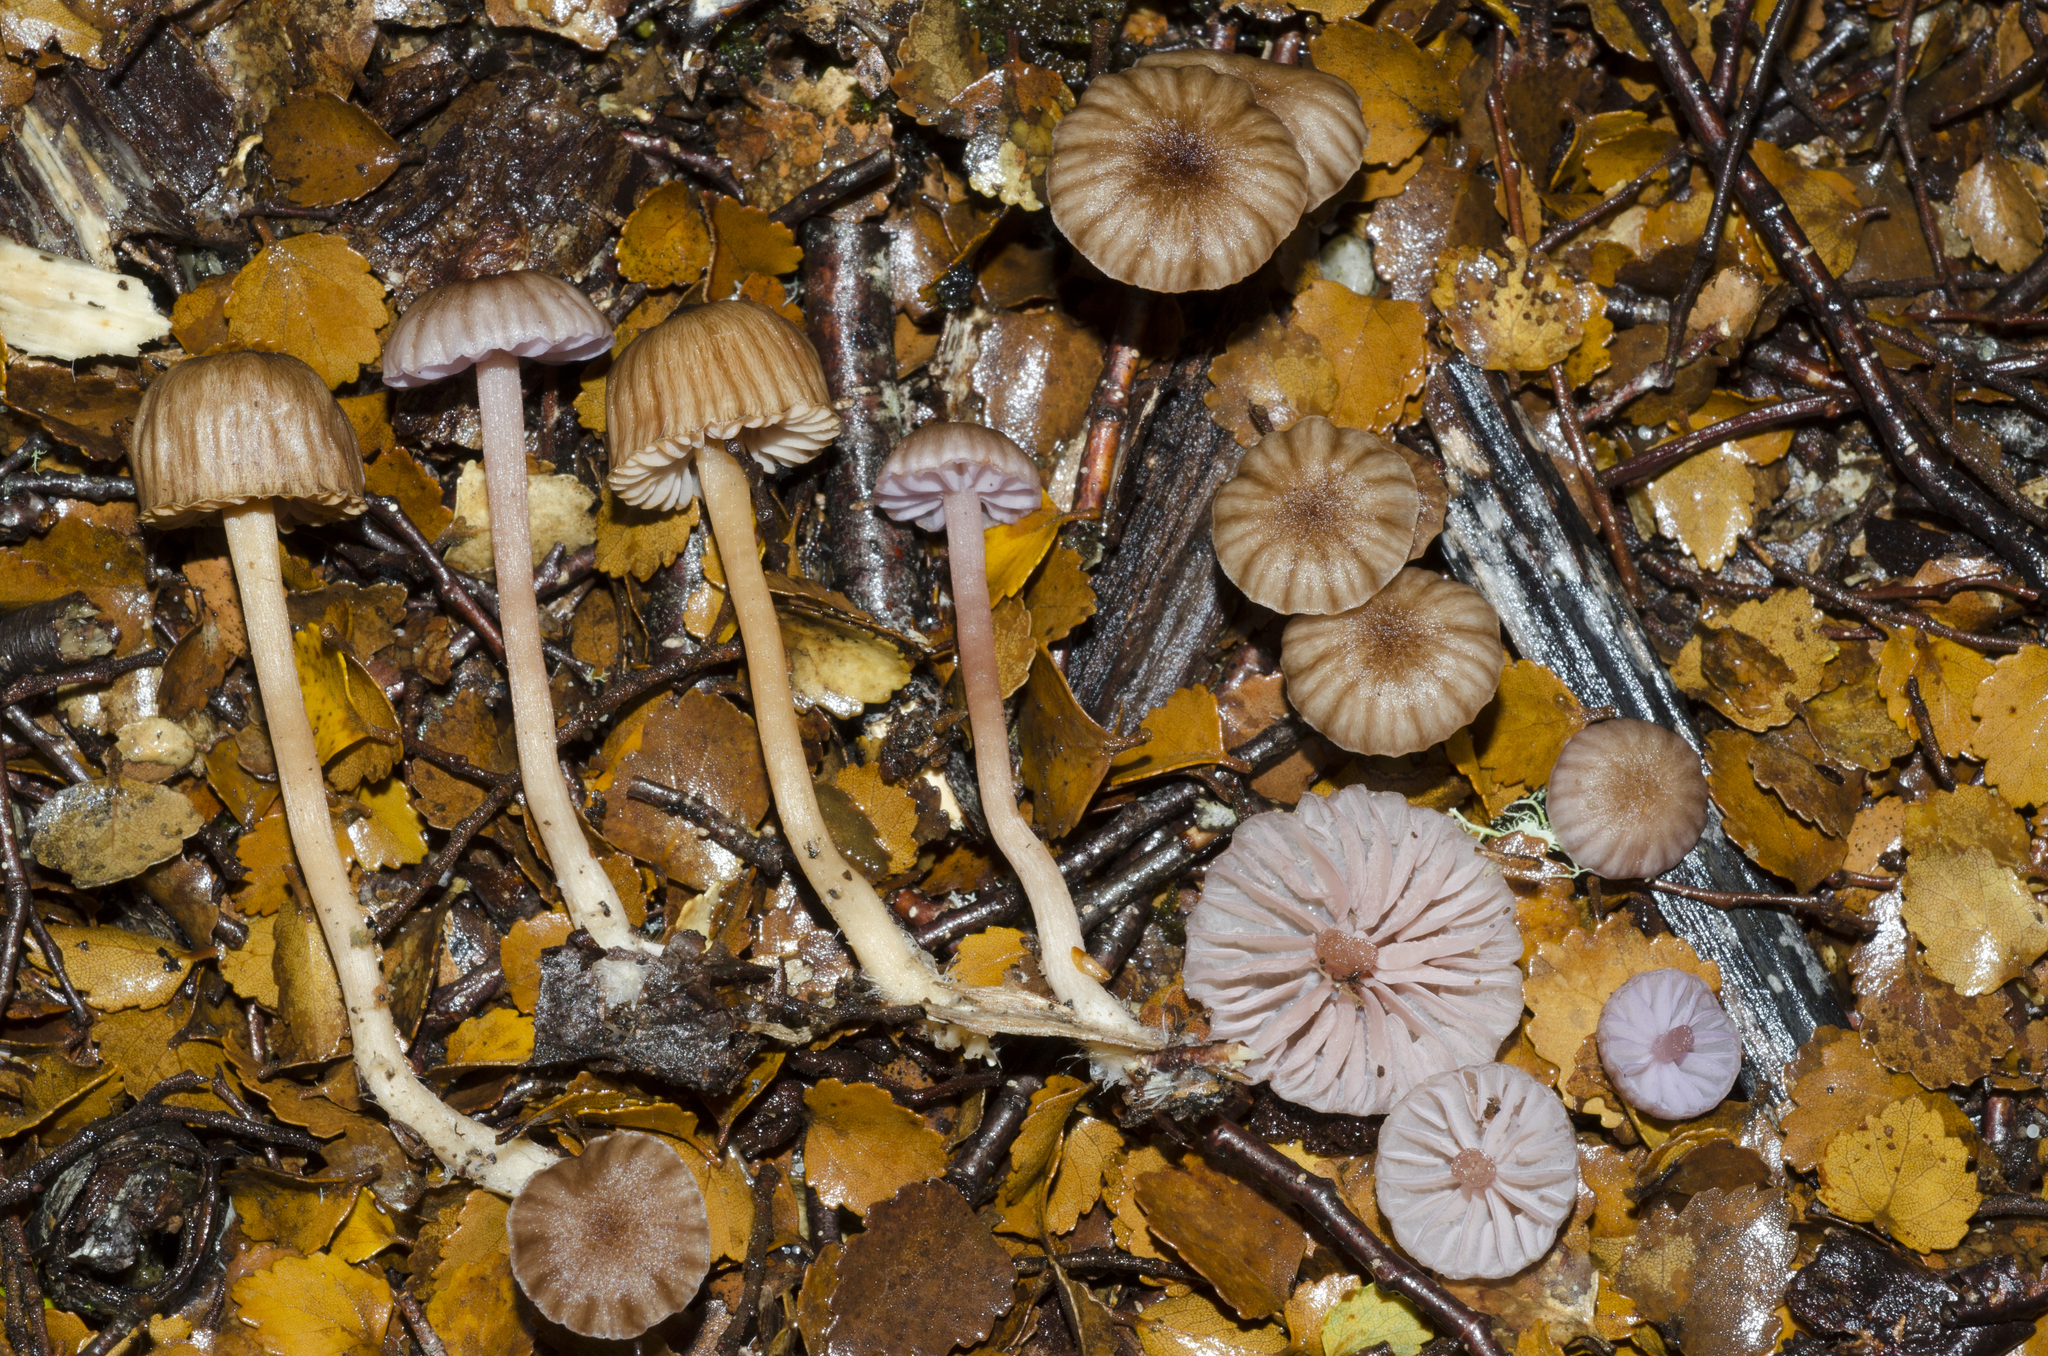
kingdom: Fungi
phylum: Basidiomycota
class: Agaricomycetes
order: Agaricales
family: Hydnangiaceae
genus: Laccaria
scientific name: Laccaria fibrillosa
